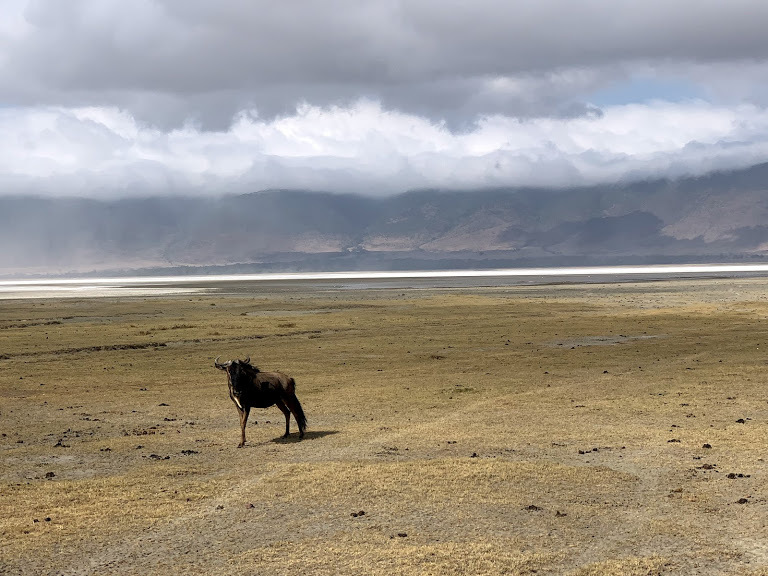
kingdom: Animalia
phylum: Chordata
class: Mammalia
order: Artiodactyla
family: Bovidae
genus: Connochaetes
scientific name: Connochaetes taurinus
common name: Blue wildebeest
